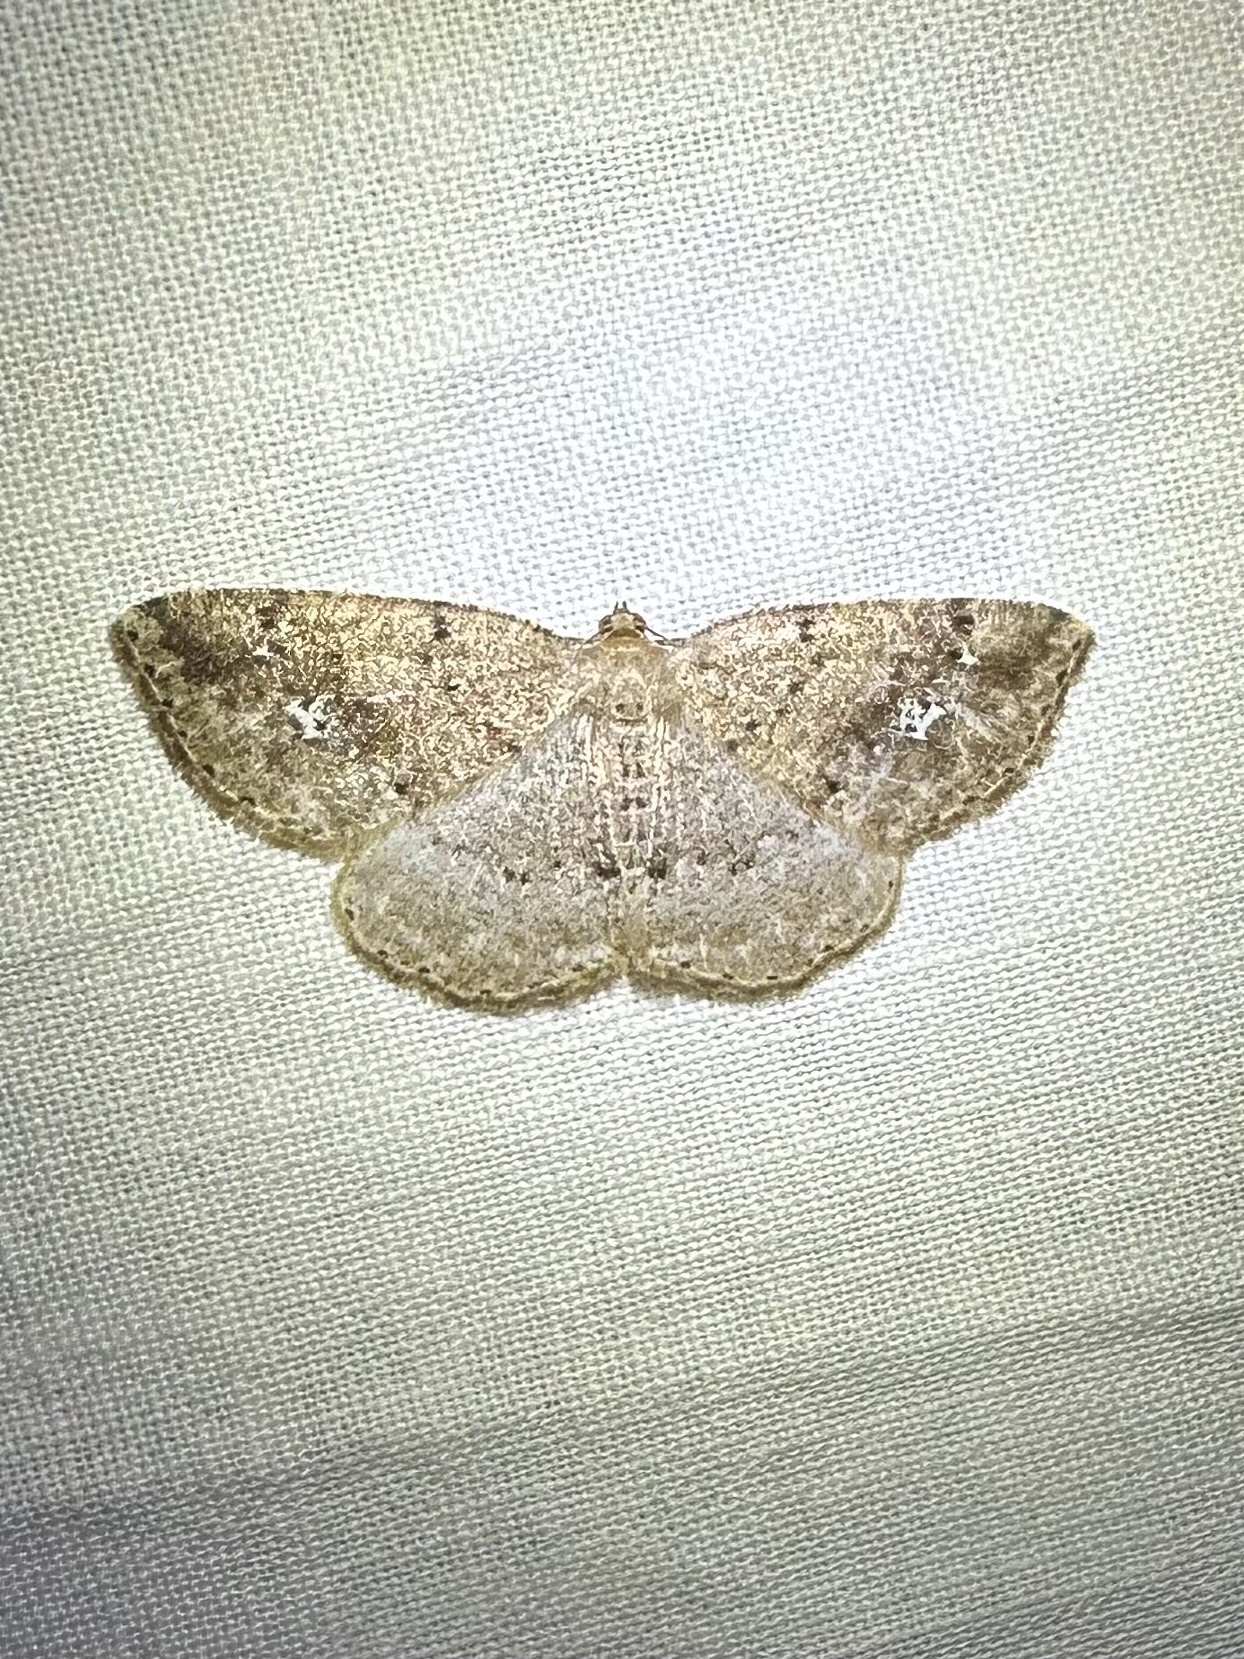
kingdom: Animalia
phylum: Arthropoda
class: Insecta
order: Lepidoptera
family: Geometridae
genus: Homochlodes
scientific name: Homochlodes fritillaria
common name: Pale homochlodes
